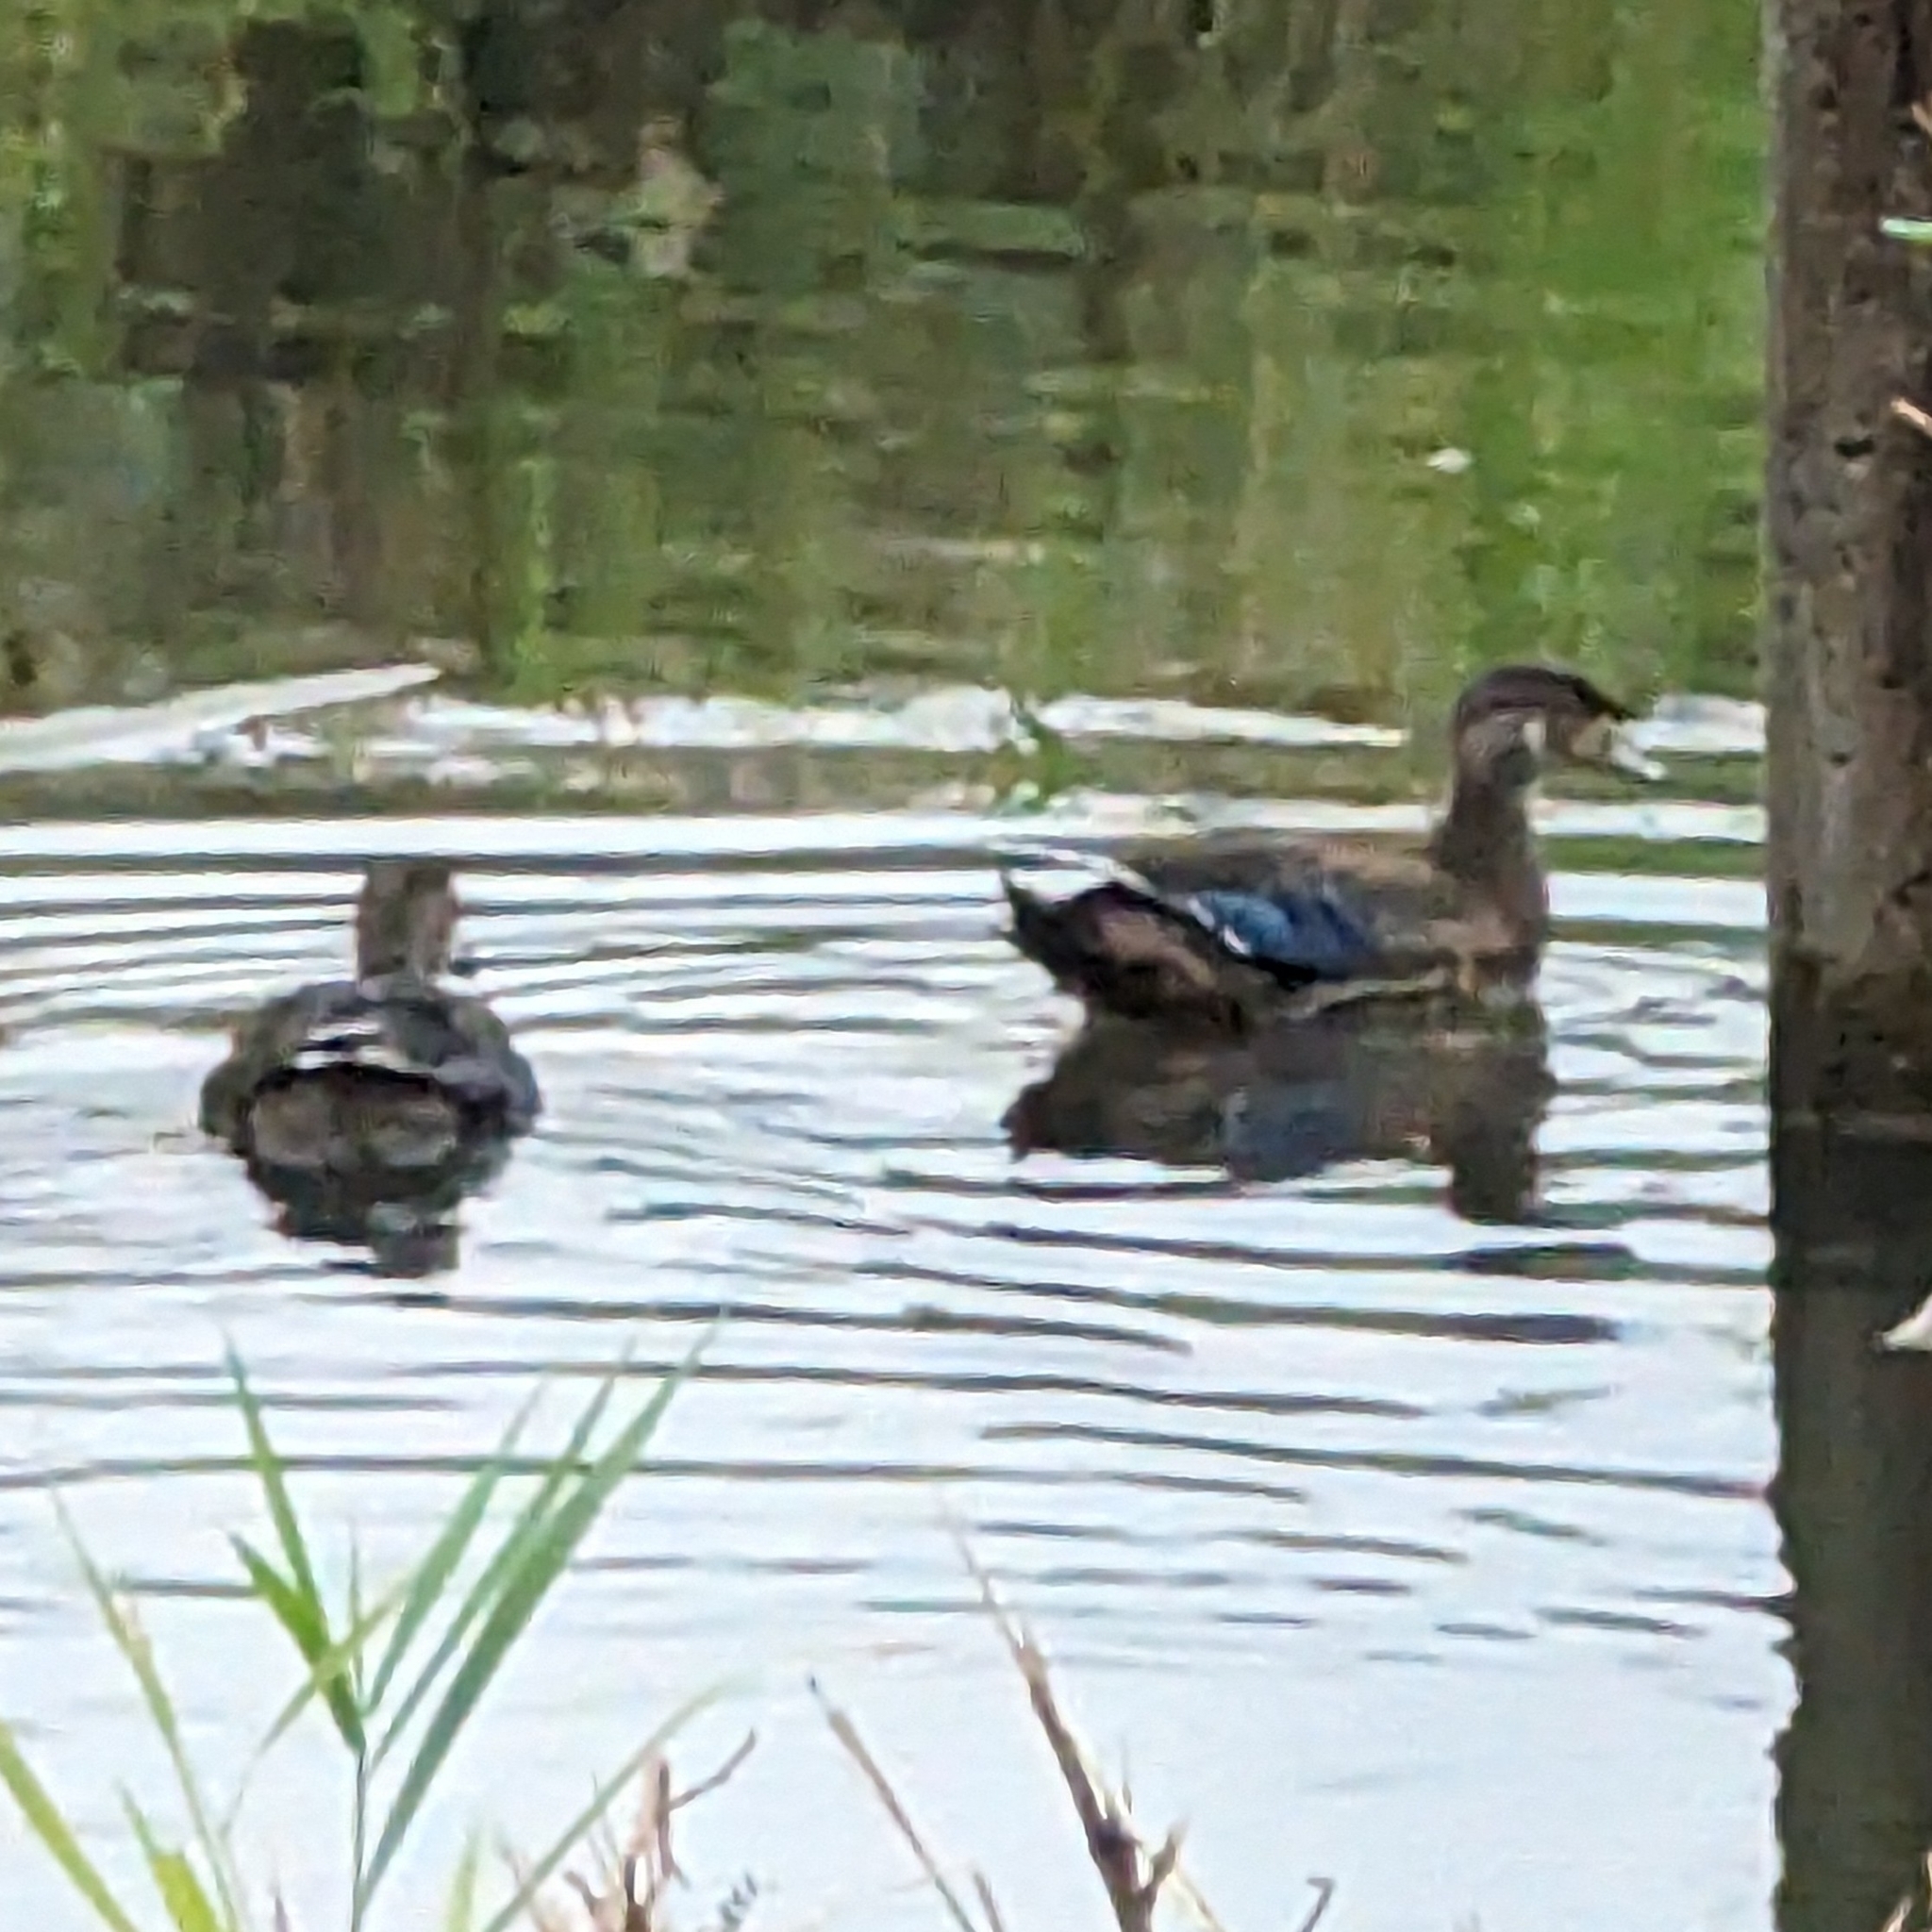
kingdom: Animalia
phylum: Chordata
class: Aves
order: Anseriformes
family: Anatidae
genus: Aix
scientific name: Aix sponsa
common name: Wood duck
